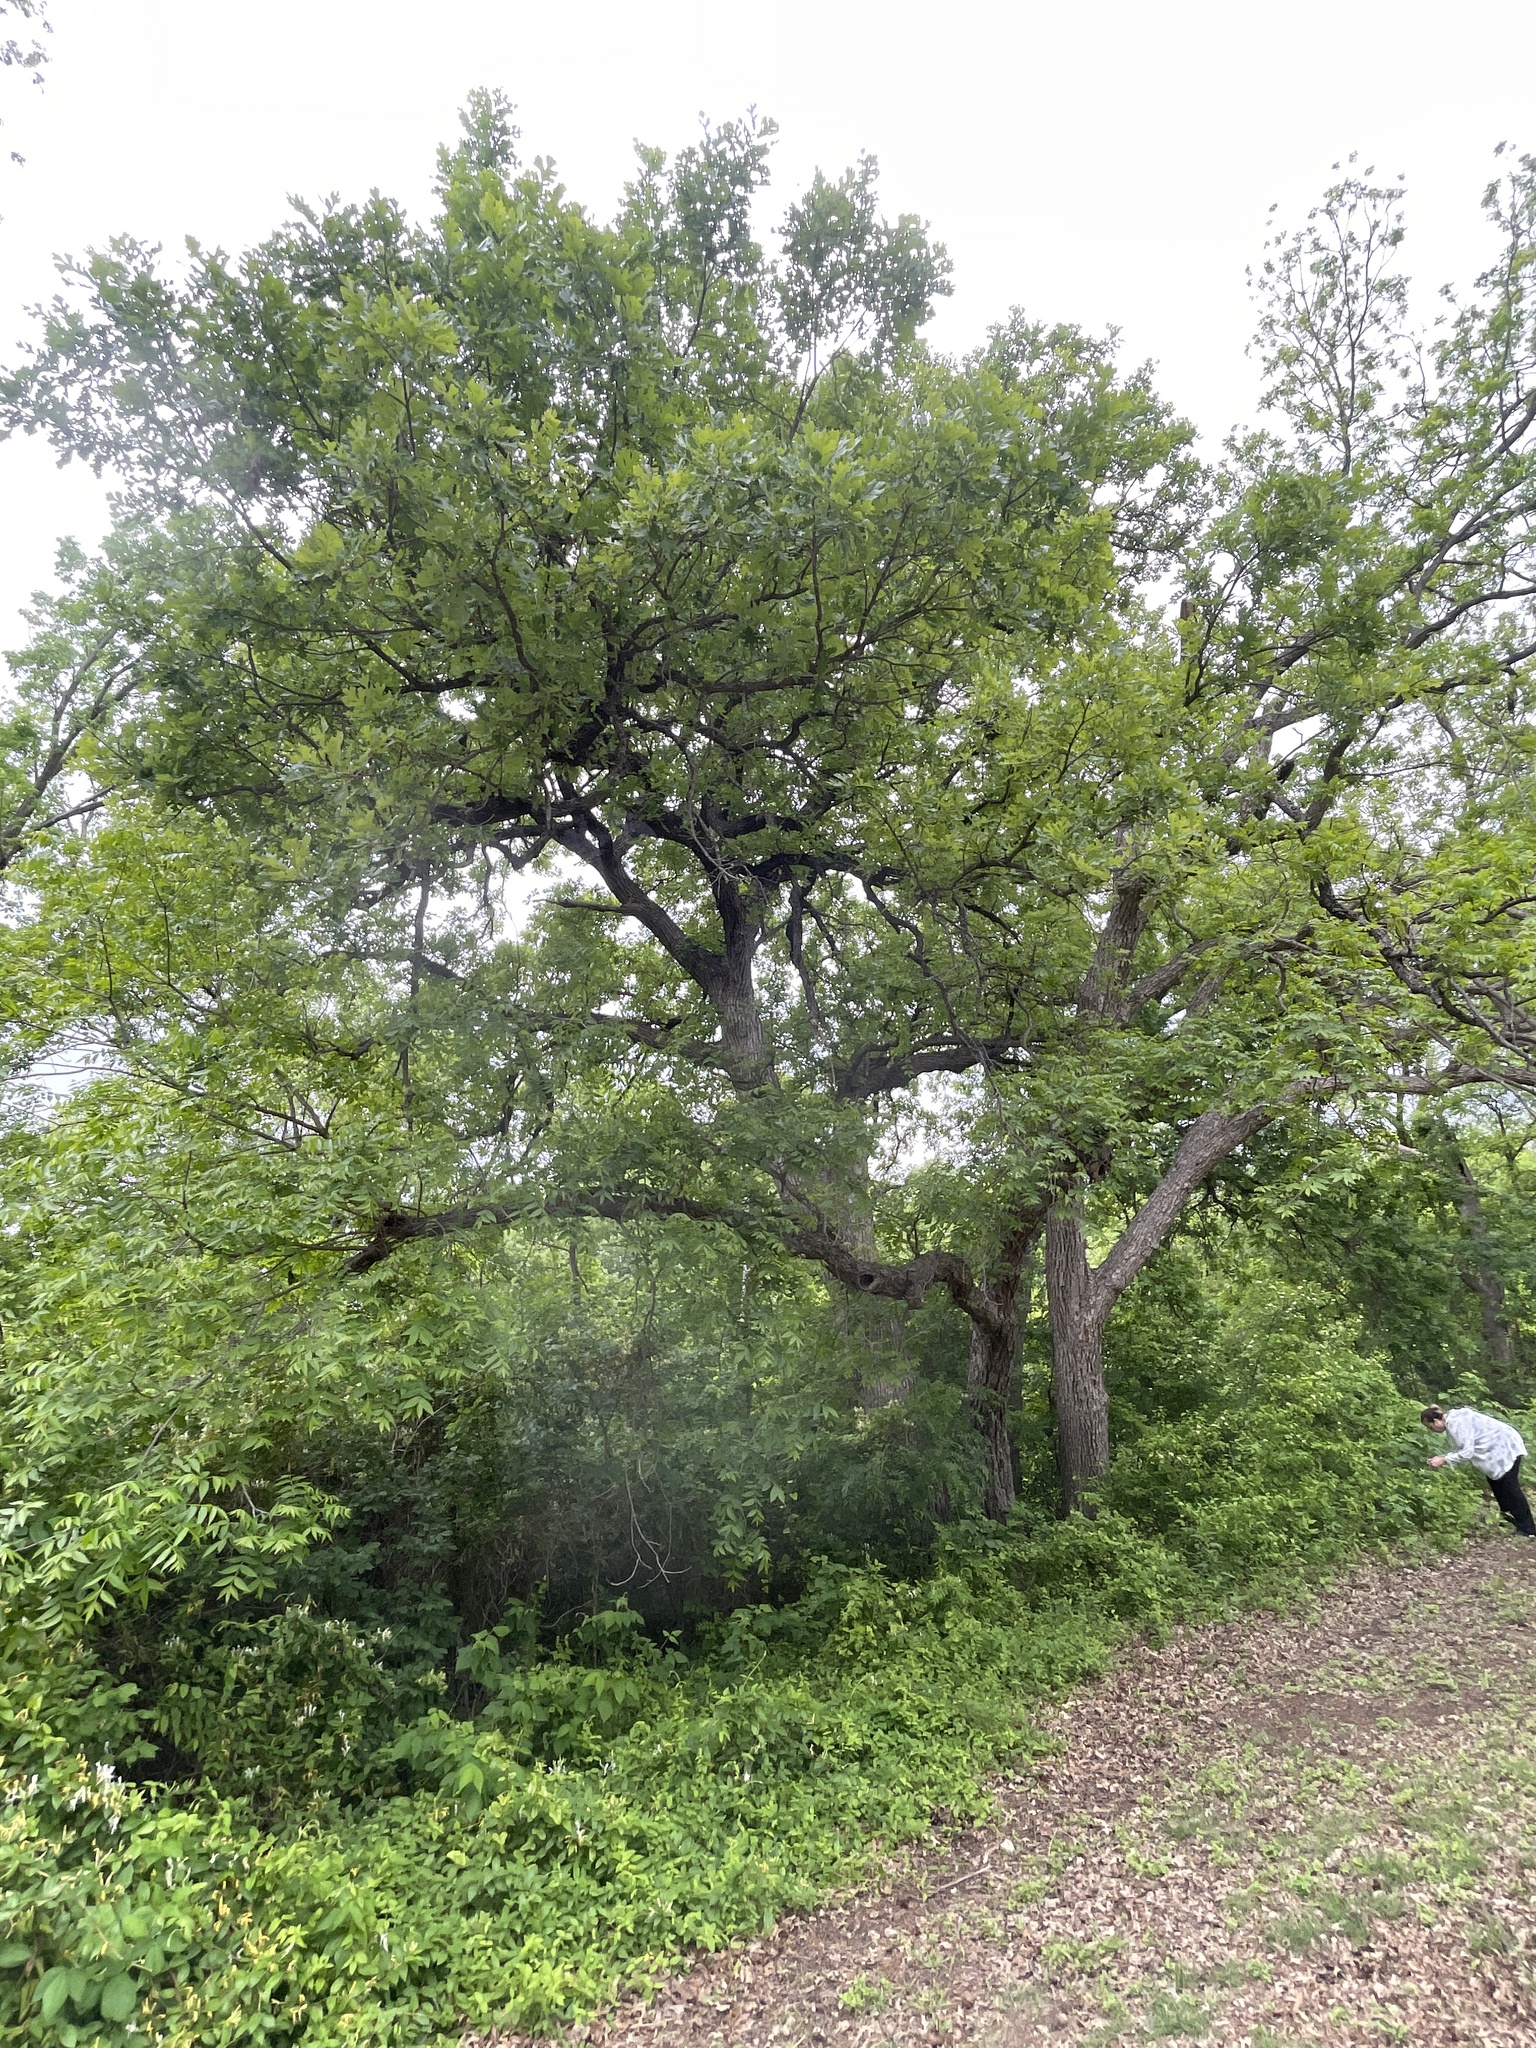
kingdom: Plantae
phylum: Tracheophyta
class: Magnoliopsida
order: Fagales
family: Fagaceae
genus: Quercus
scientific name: Quercus macrocarpa
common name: Bur oak
